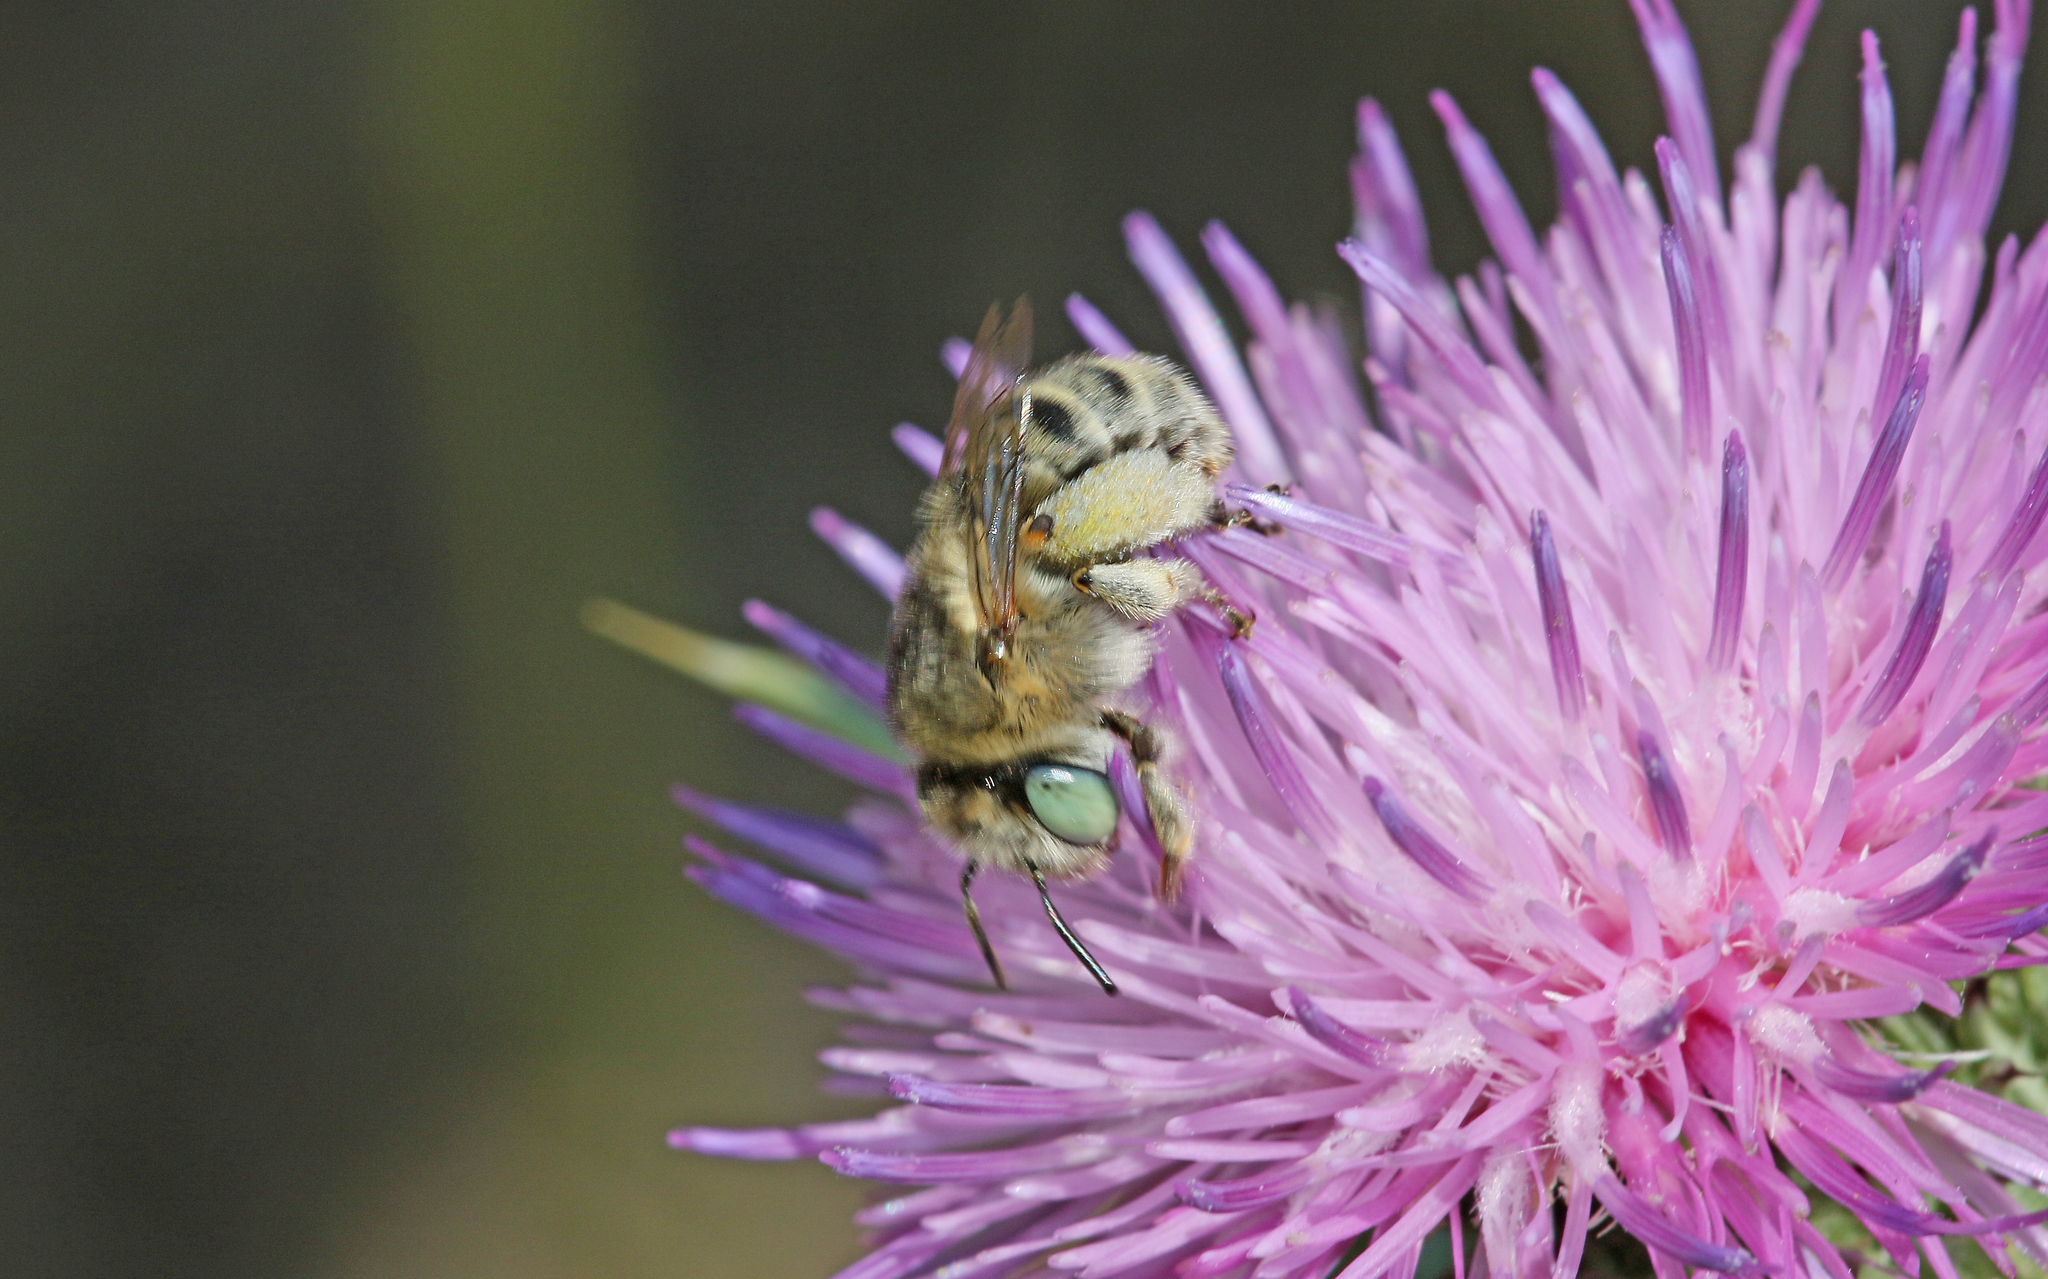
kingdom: Animalia
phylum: Arthropoda
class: Insecta
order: Hymenoptera
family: Apidae
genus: Anthophora
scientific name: Anthophora bimaculata
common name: Green-eyed flower bee
